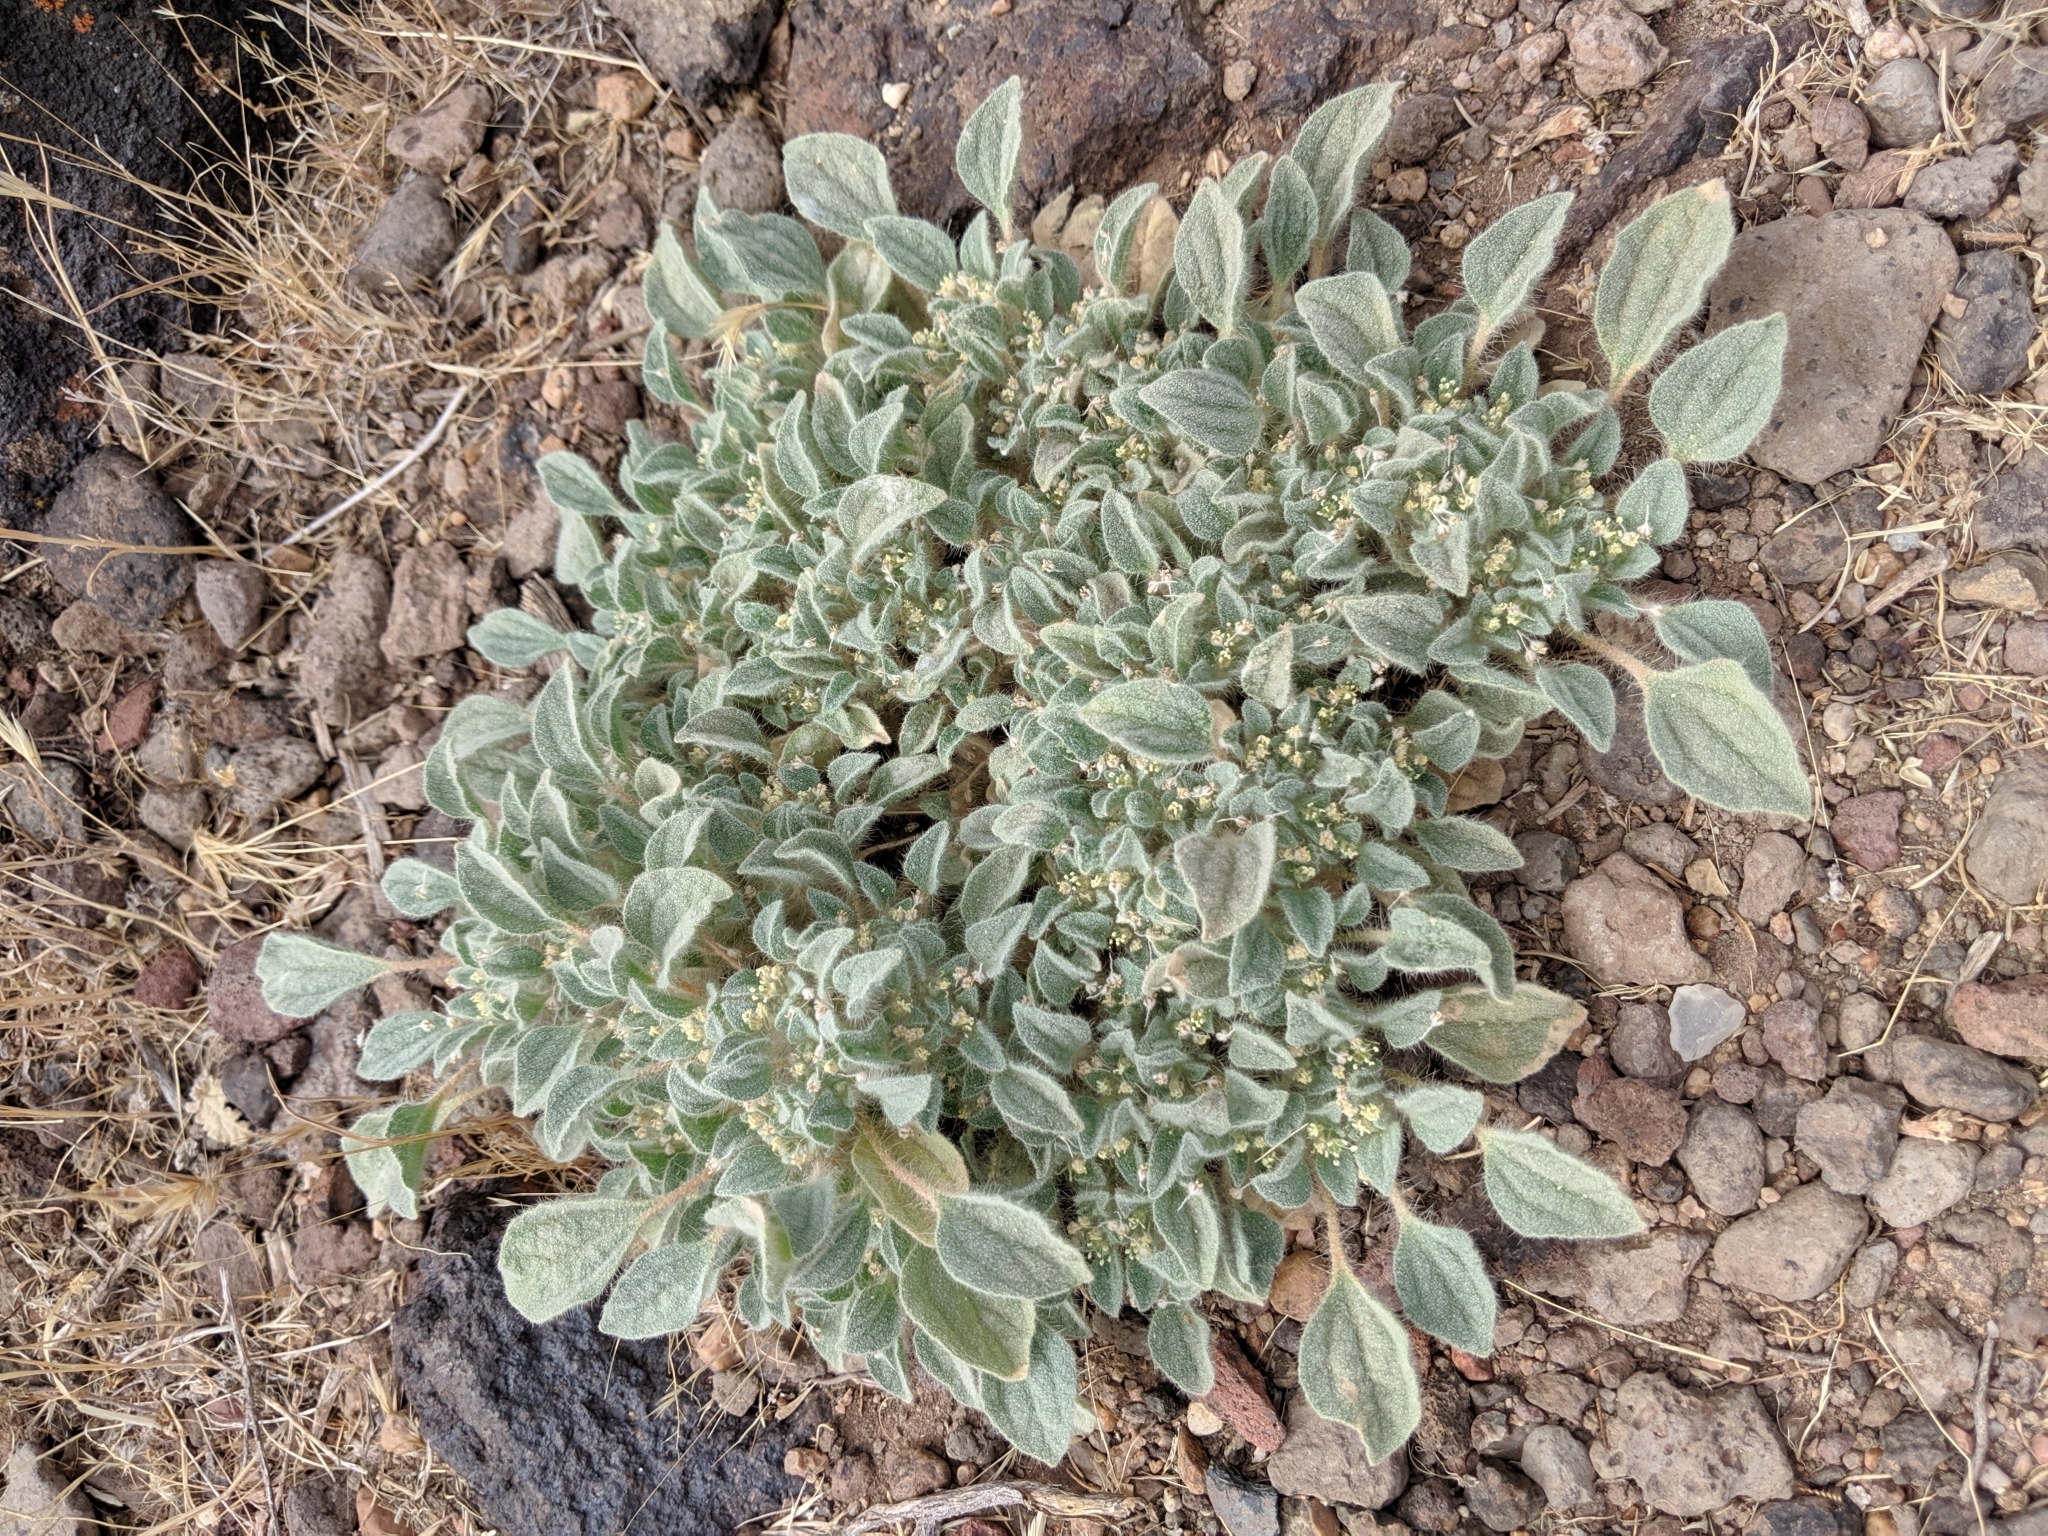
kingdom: Plantae
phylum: Tracheophyta
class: Magnoliopsida
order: Malpighiales
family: Euphorbiaceae
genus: Croton
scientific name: Croton setiger
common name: Dove weed
